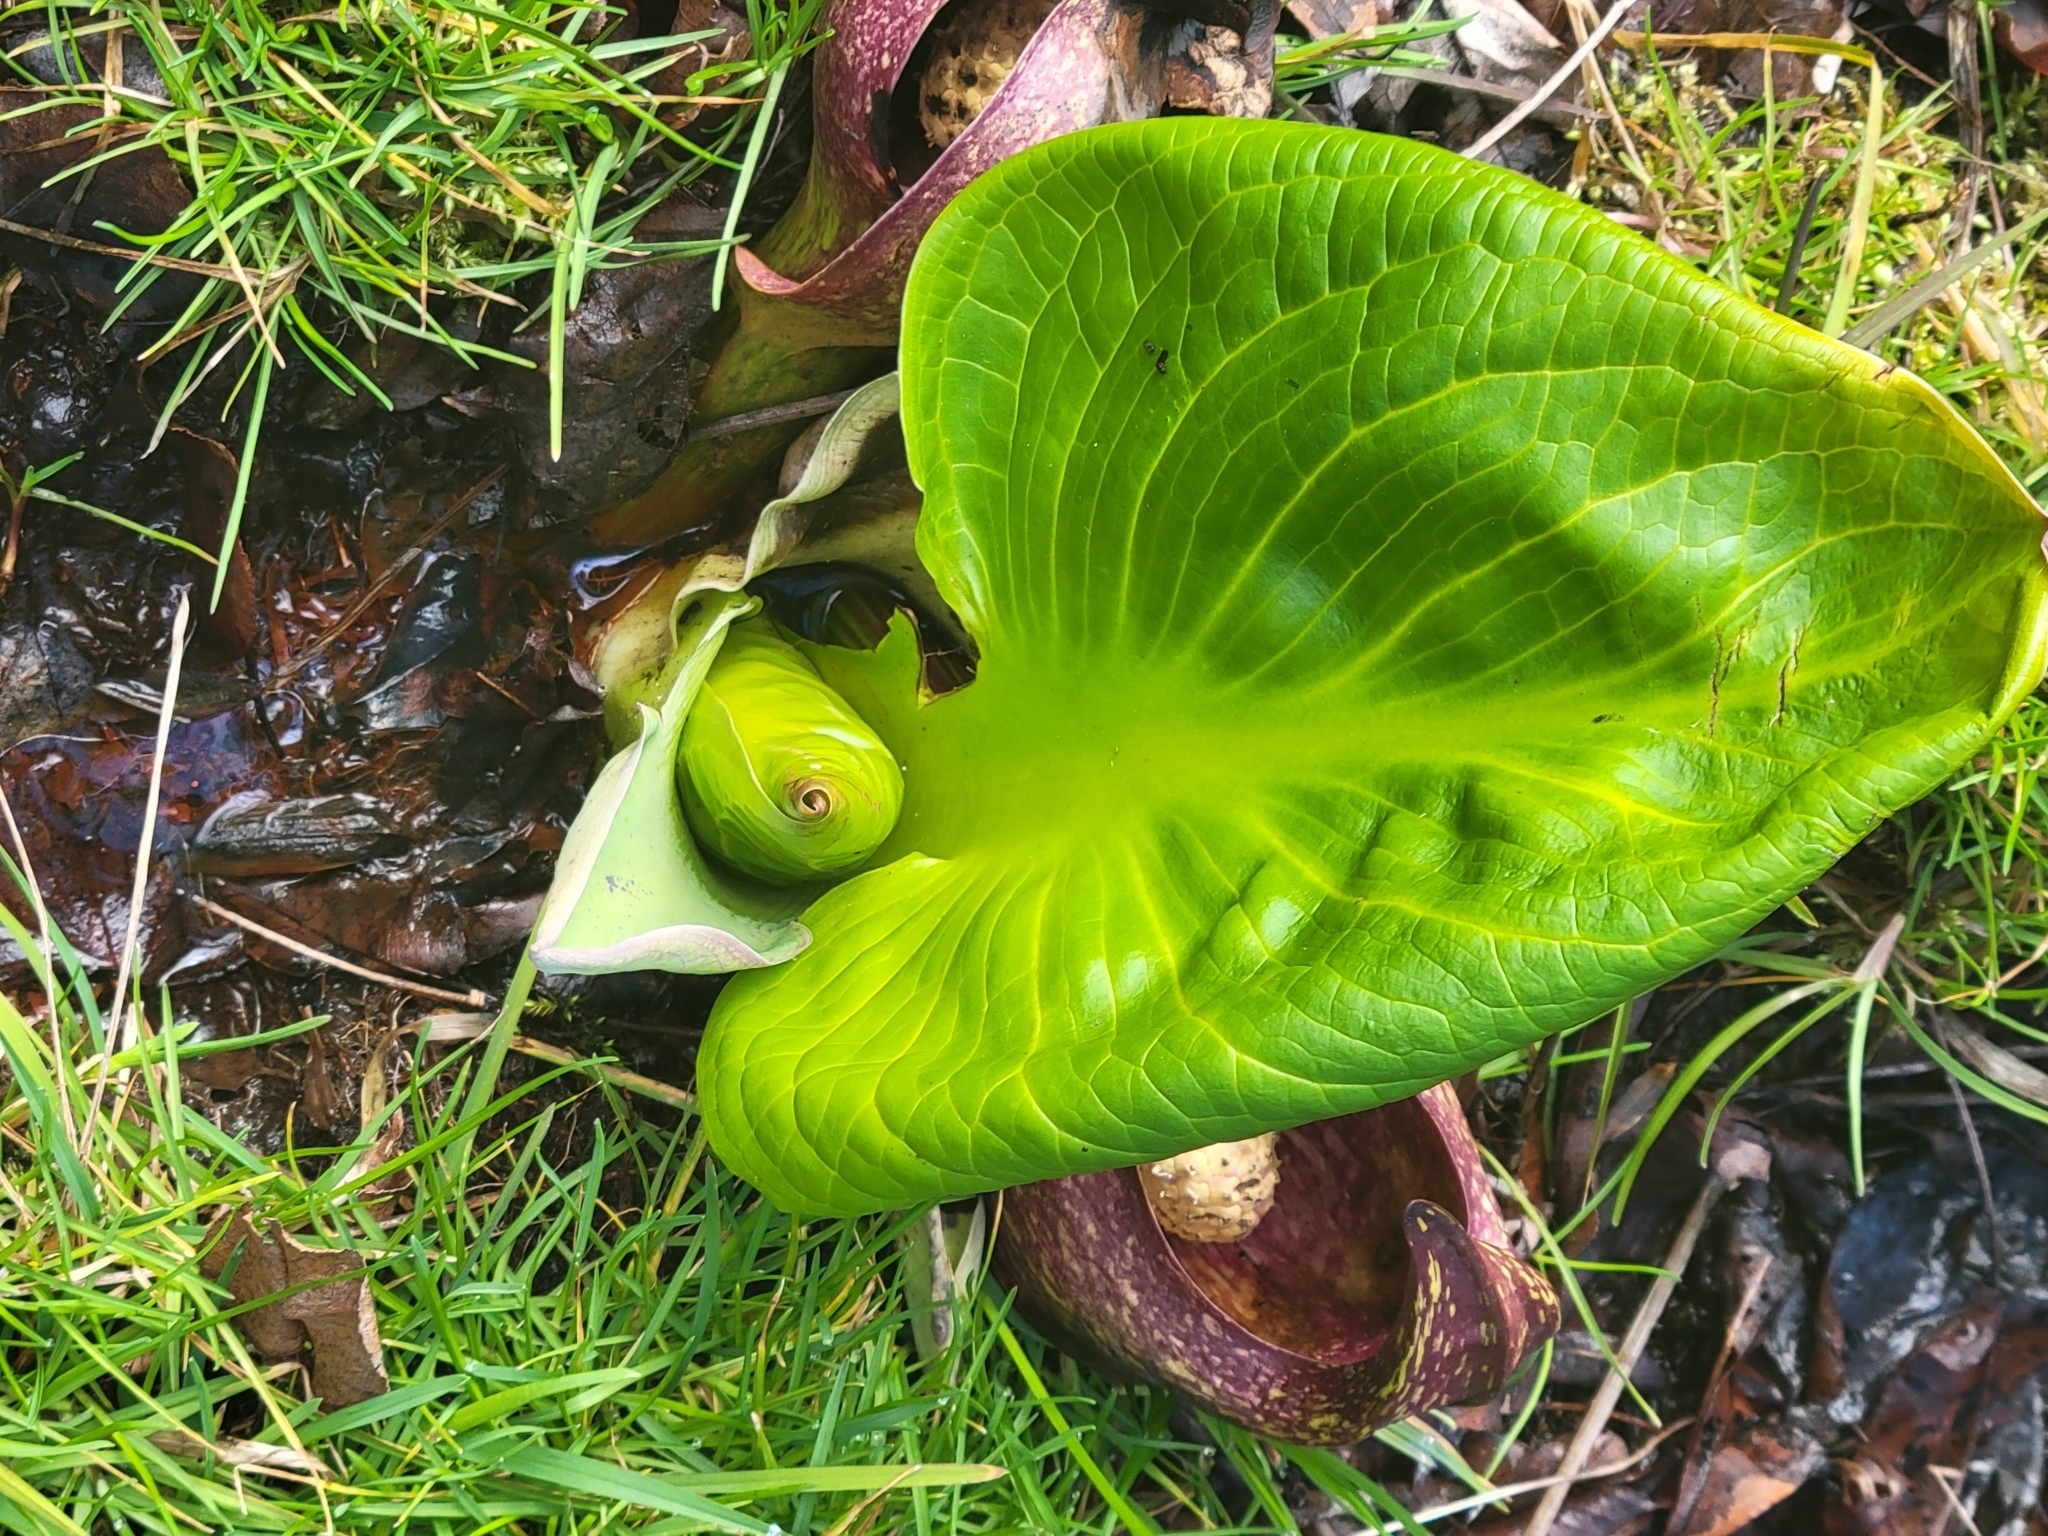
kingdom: Plantae
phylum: Tracheophyta
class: Liliopsida
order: Alismatales
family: Araceae
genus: Symplocarpus
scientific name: Symplocarpus foetidus
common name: Eastern skunk cabbage
